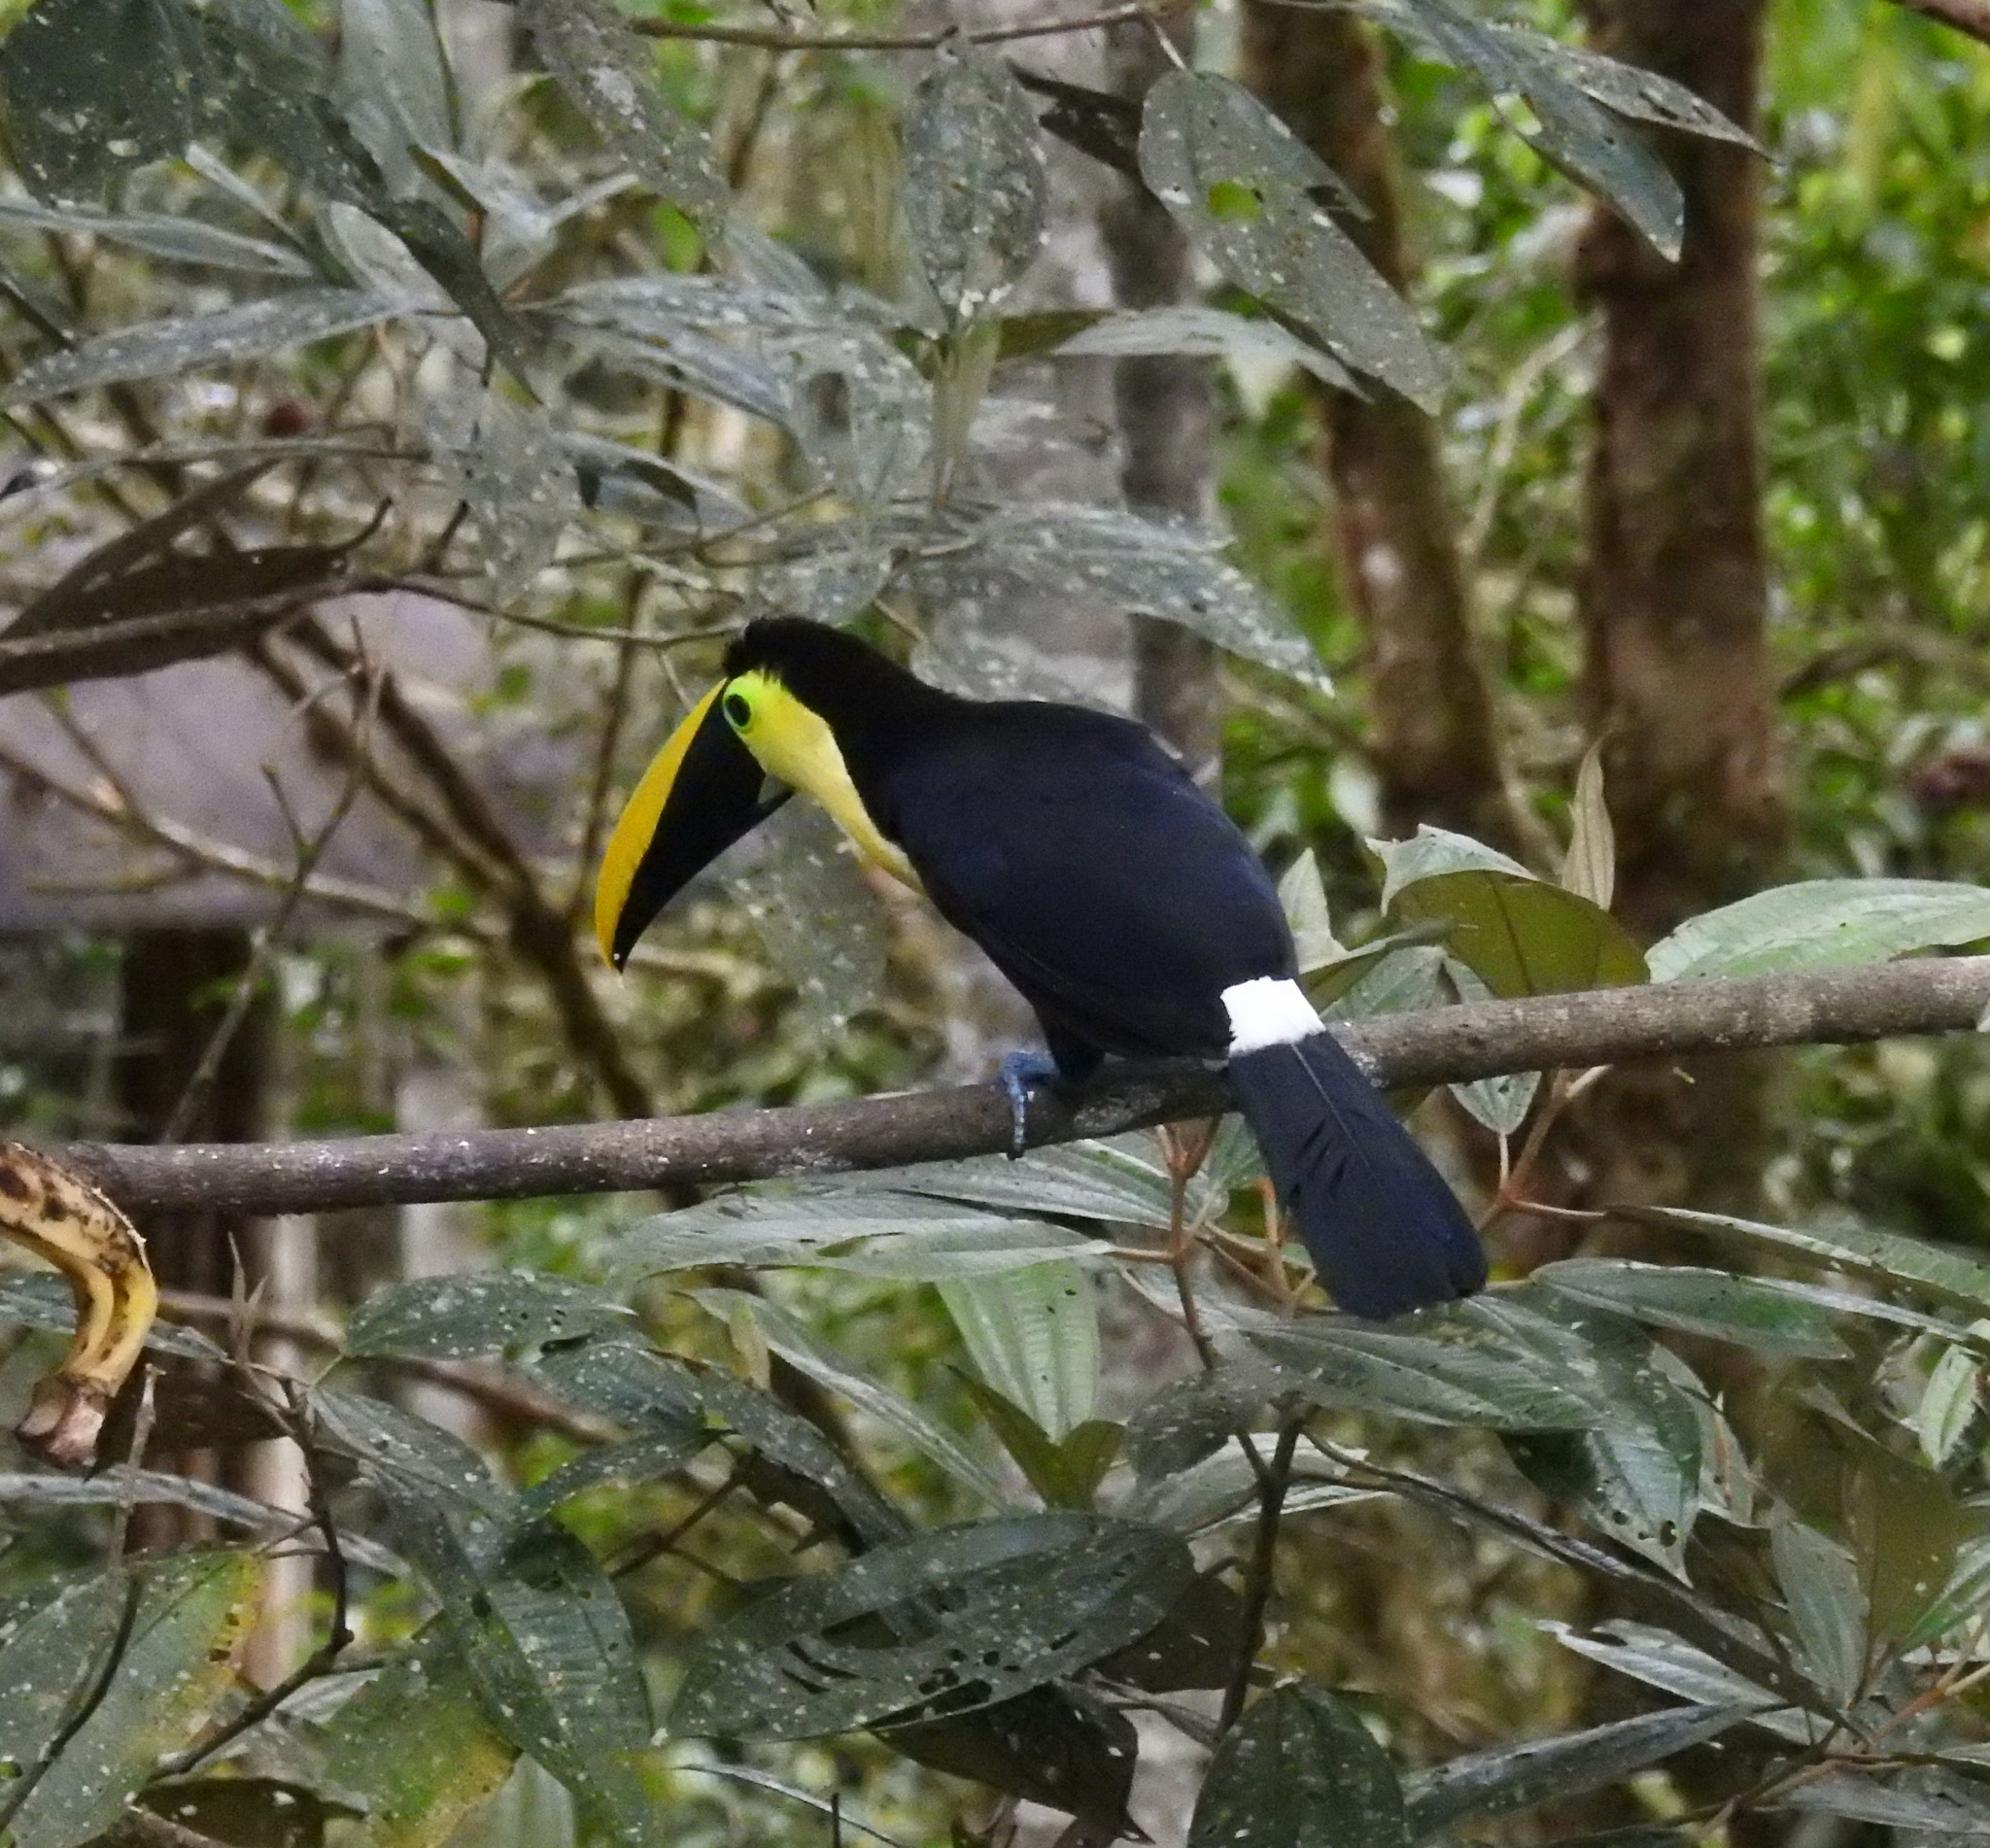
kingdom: Animalia
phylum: Chordata
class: Aves
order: Piciformes
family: Ramphastidae
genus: Ramphastos
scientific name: Ramphastos brevis
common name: Choco toucan
